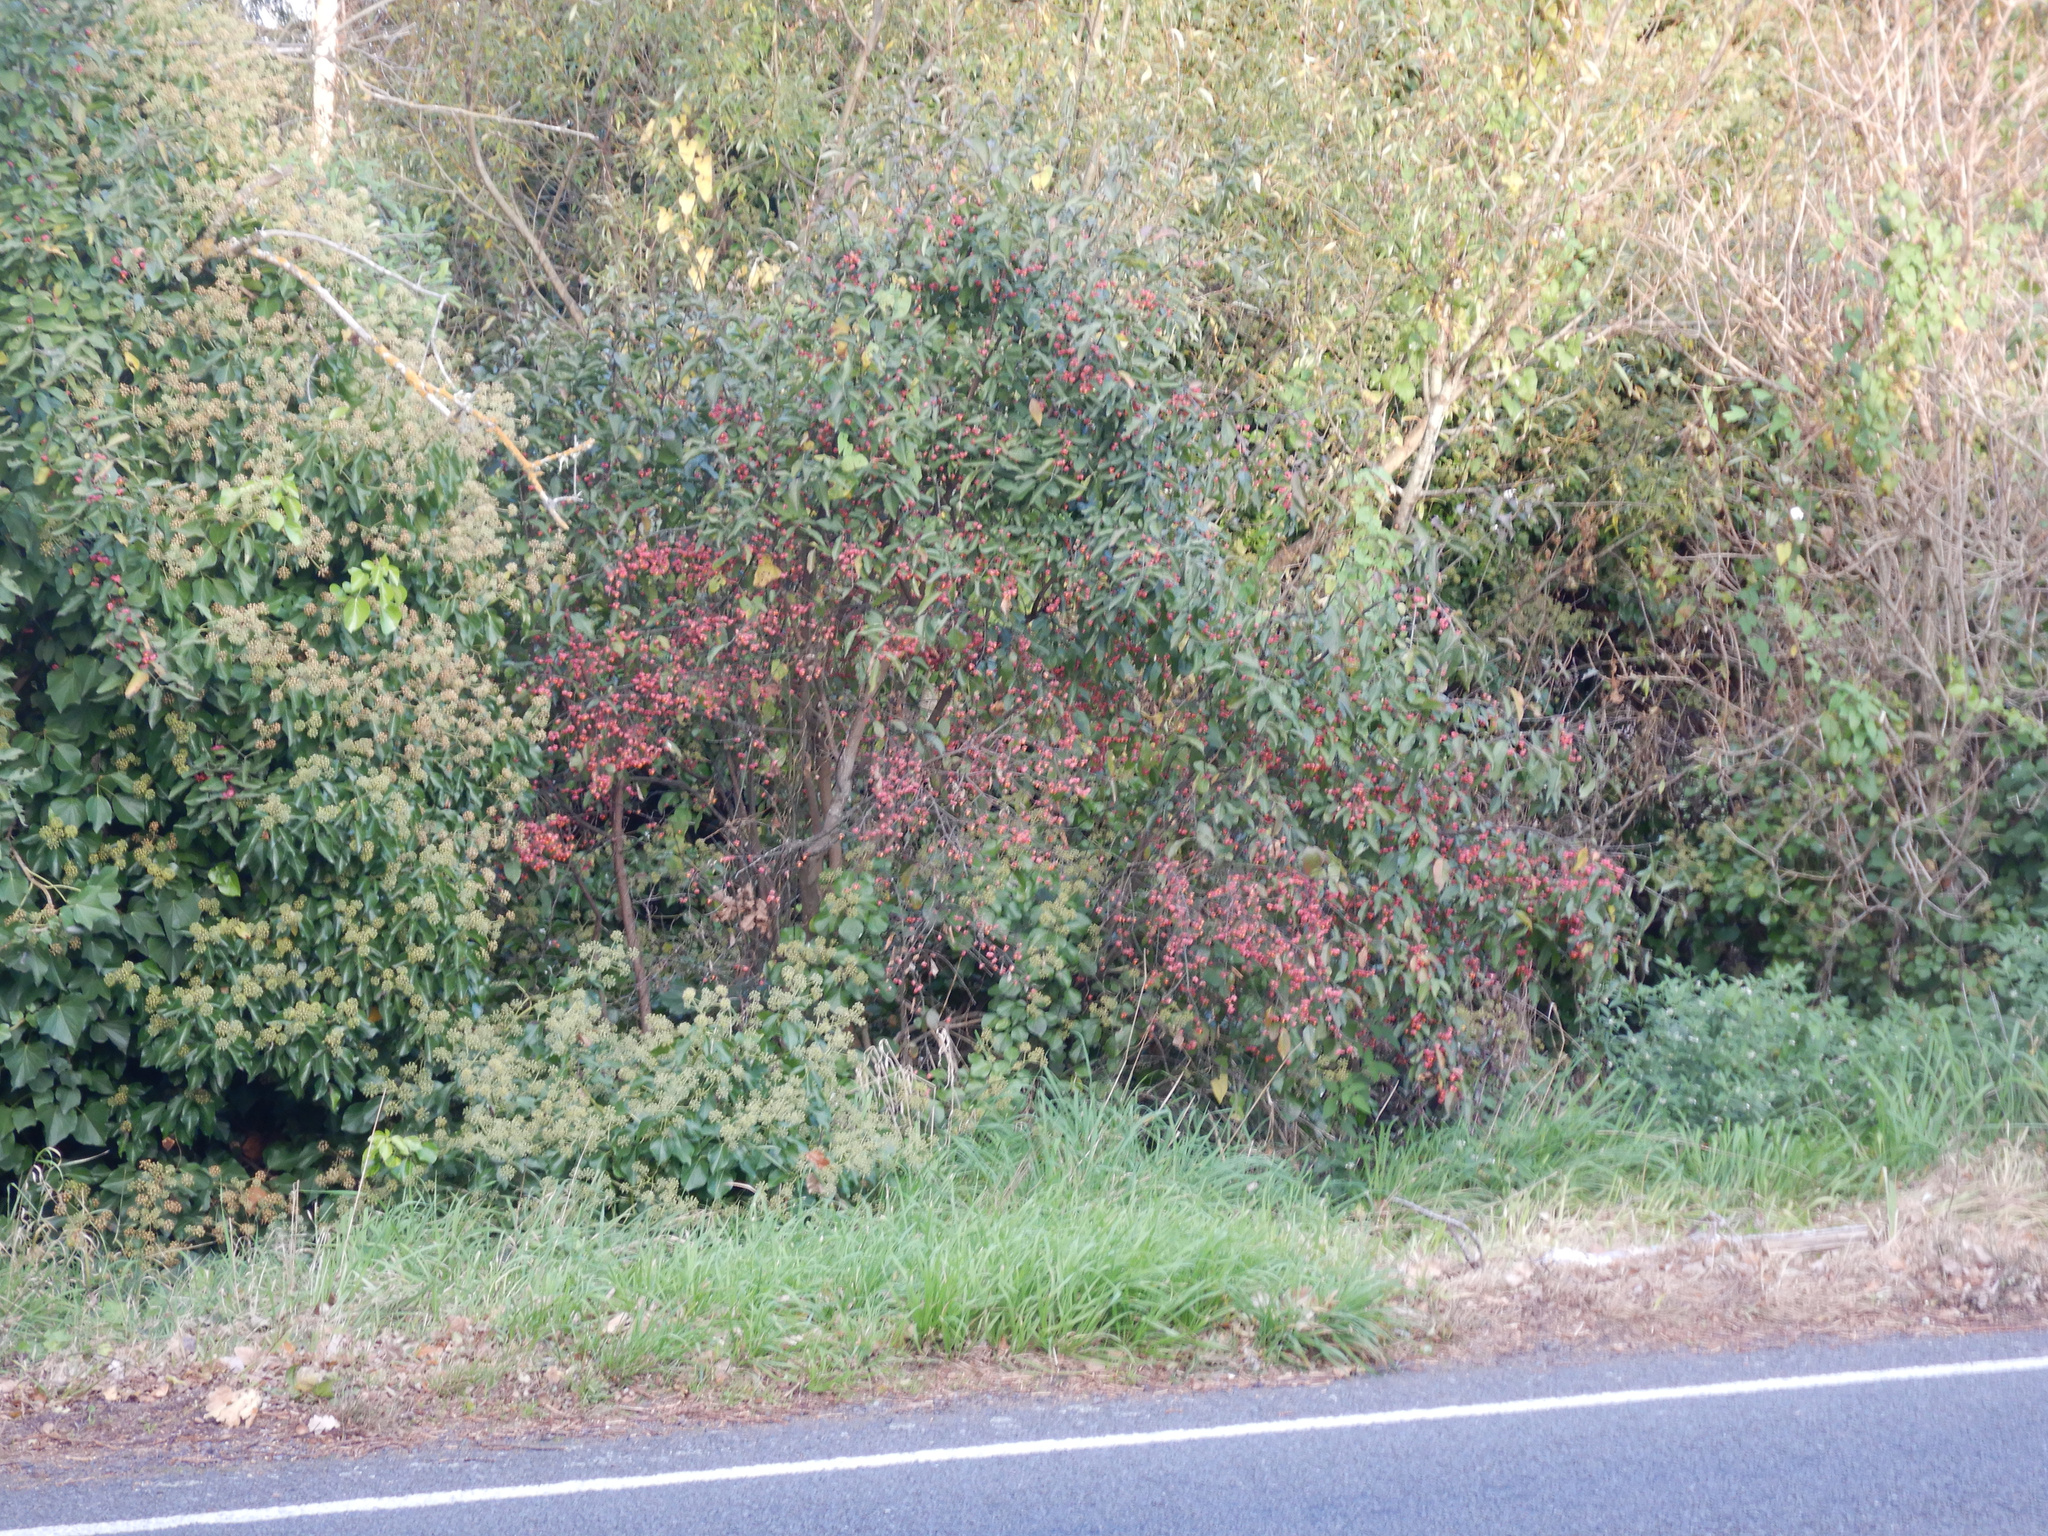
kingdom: Plantae
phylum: Tracheophyta
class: Magnoliopsida
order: Celastrales
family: Celastraceae
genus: Euonymus
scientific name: Euonymus europaeus
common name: Spindle
